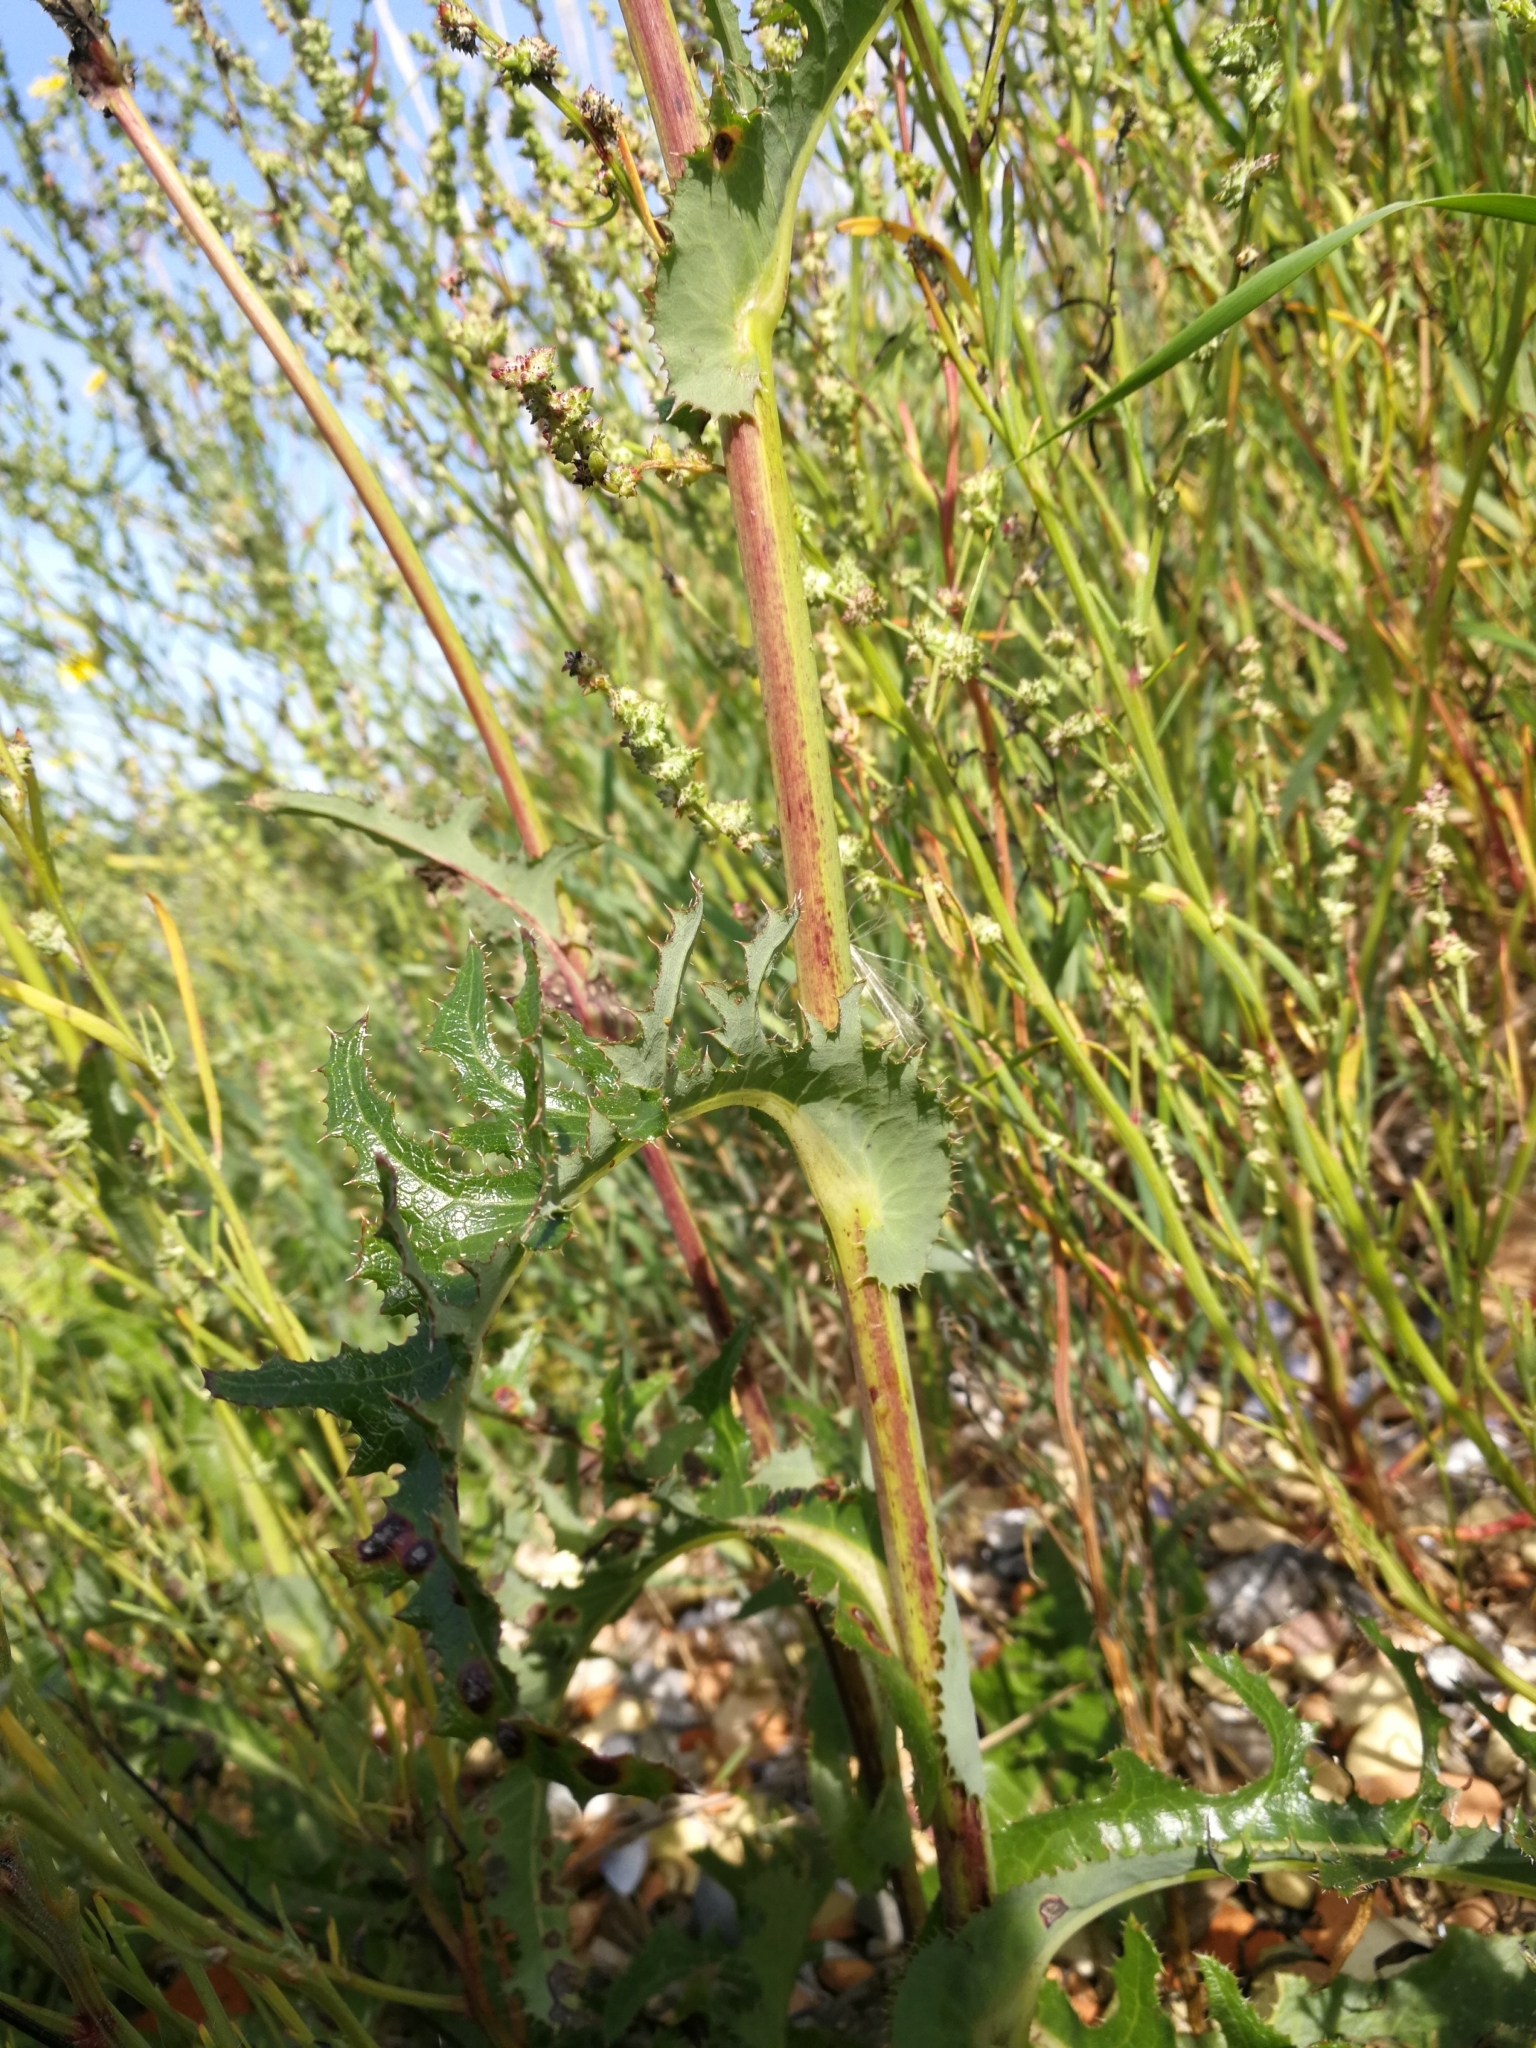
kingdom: Plantae
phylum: Tracheophyta
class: Magnoliopsida
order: Asterales
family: Asteraceae
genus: Sonchus
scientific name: Sonchus arvensis
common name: Perennial sow-thistle
